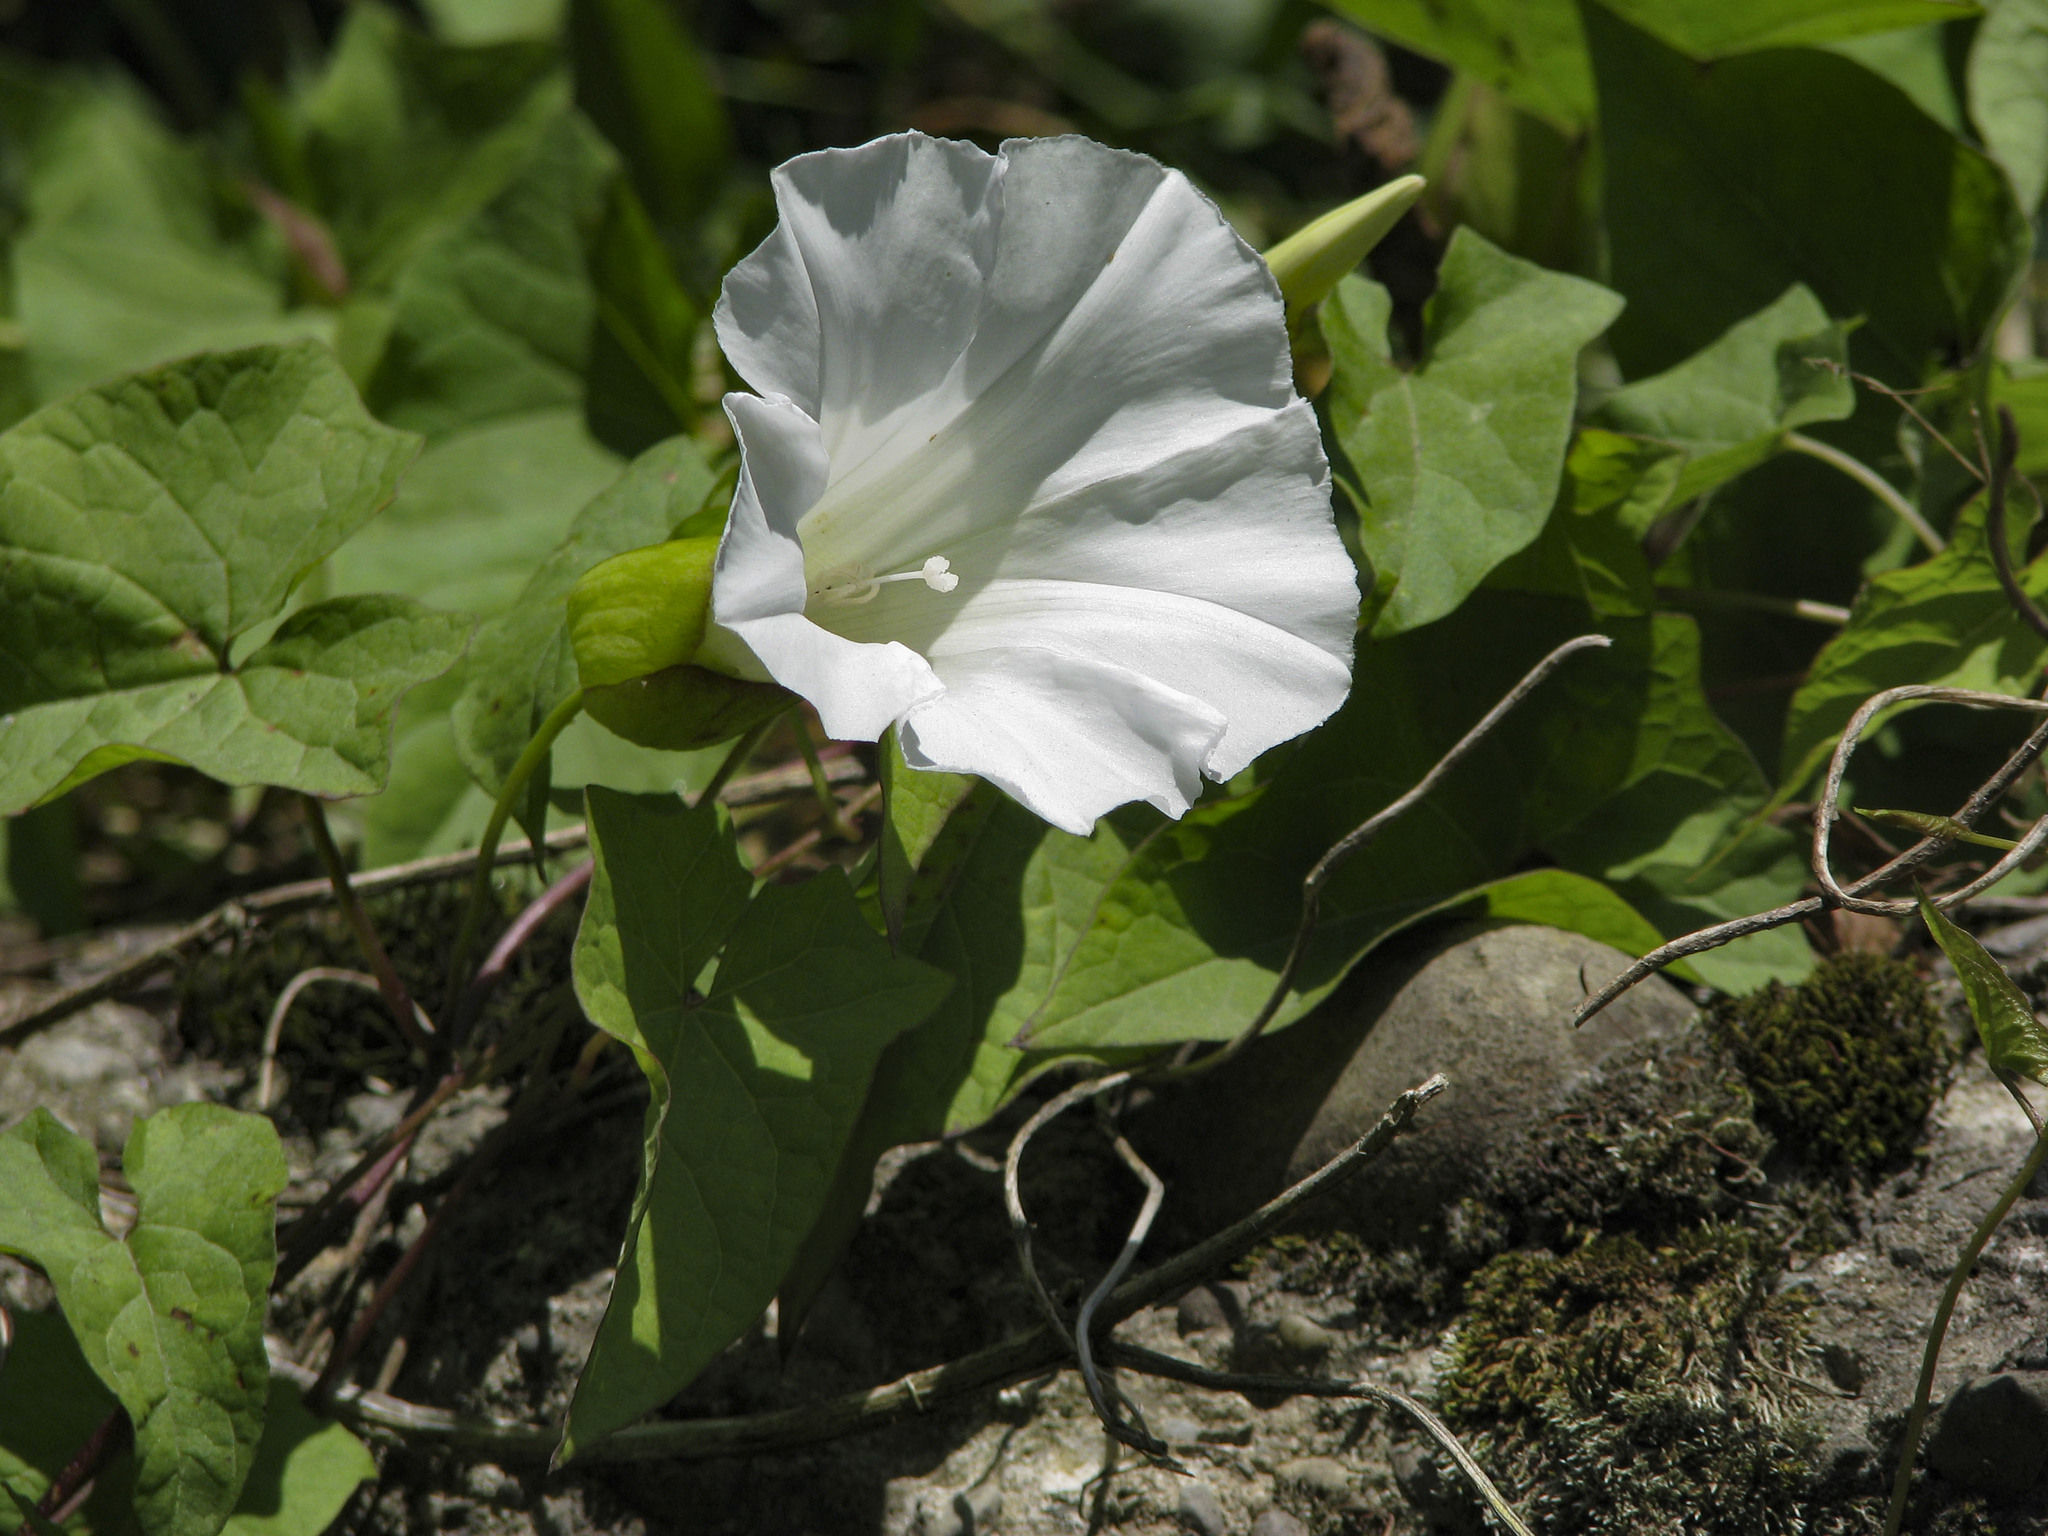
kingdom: Plantae
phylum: Tracheophyta
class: Magnoliopsida
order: Solanales
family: Convolvulaceae
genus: Calystegia
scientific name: Calystegia silvatica
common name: Large bindweed
